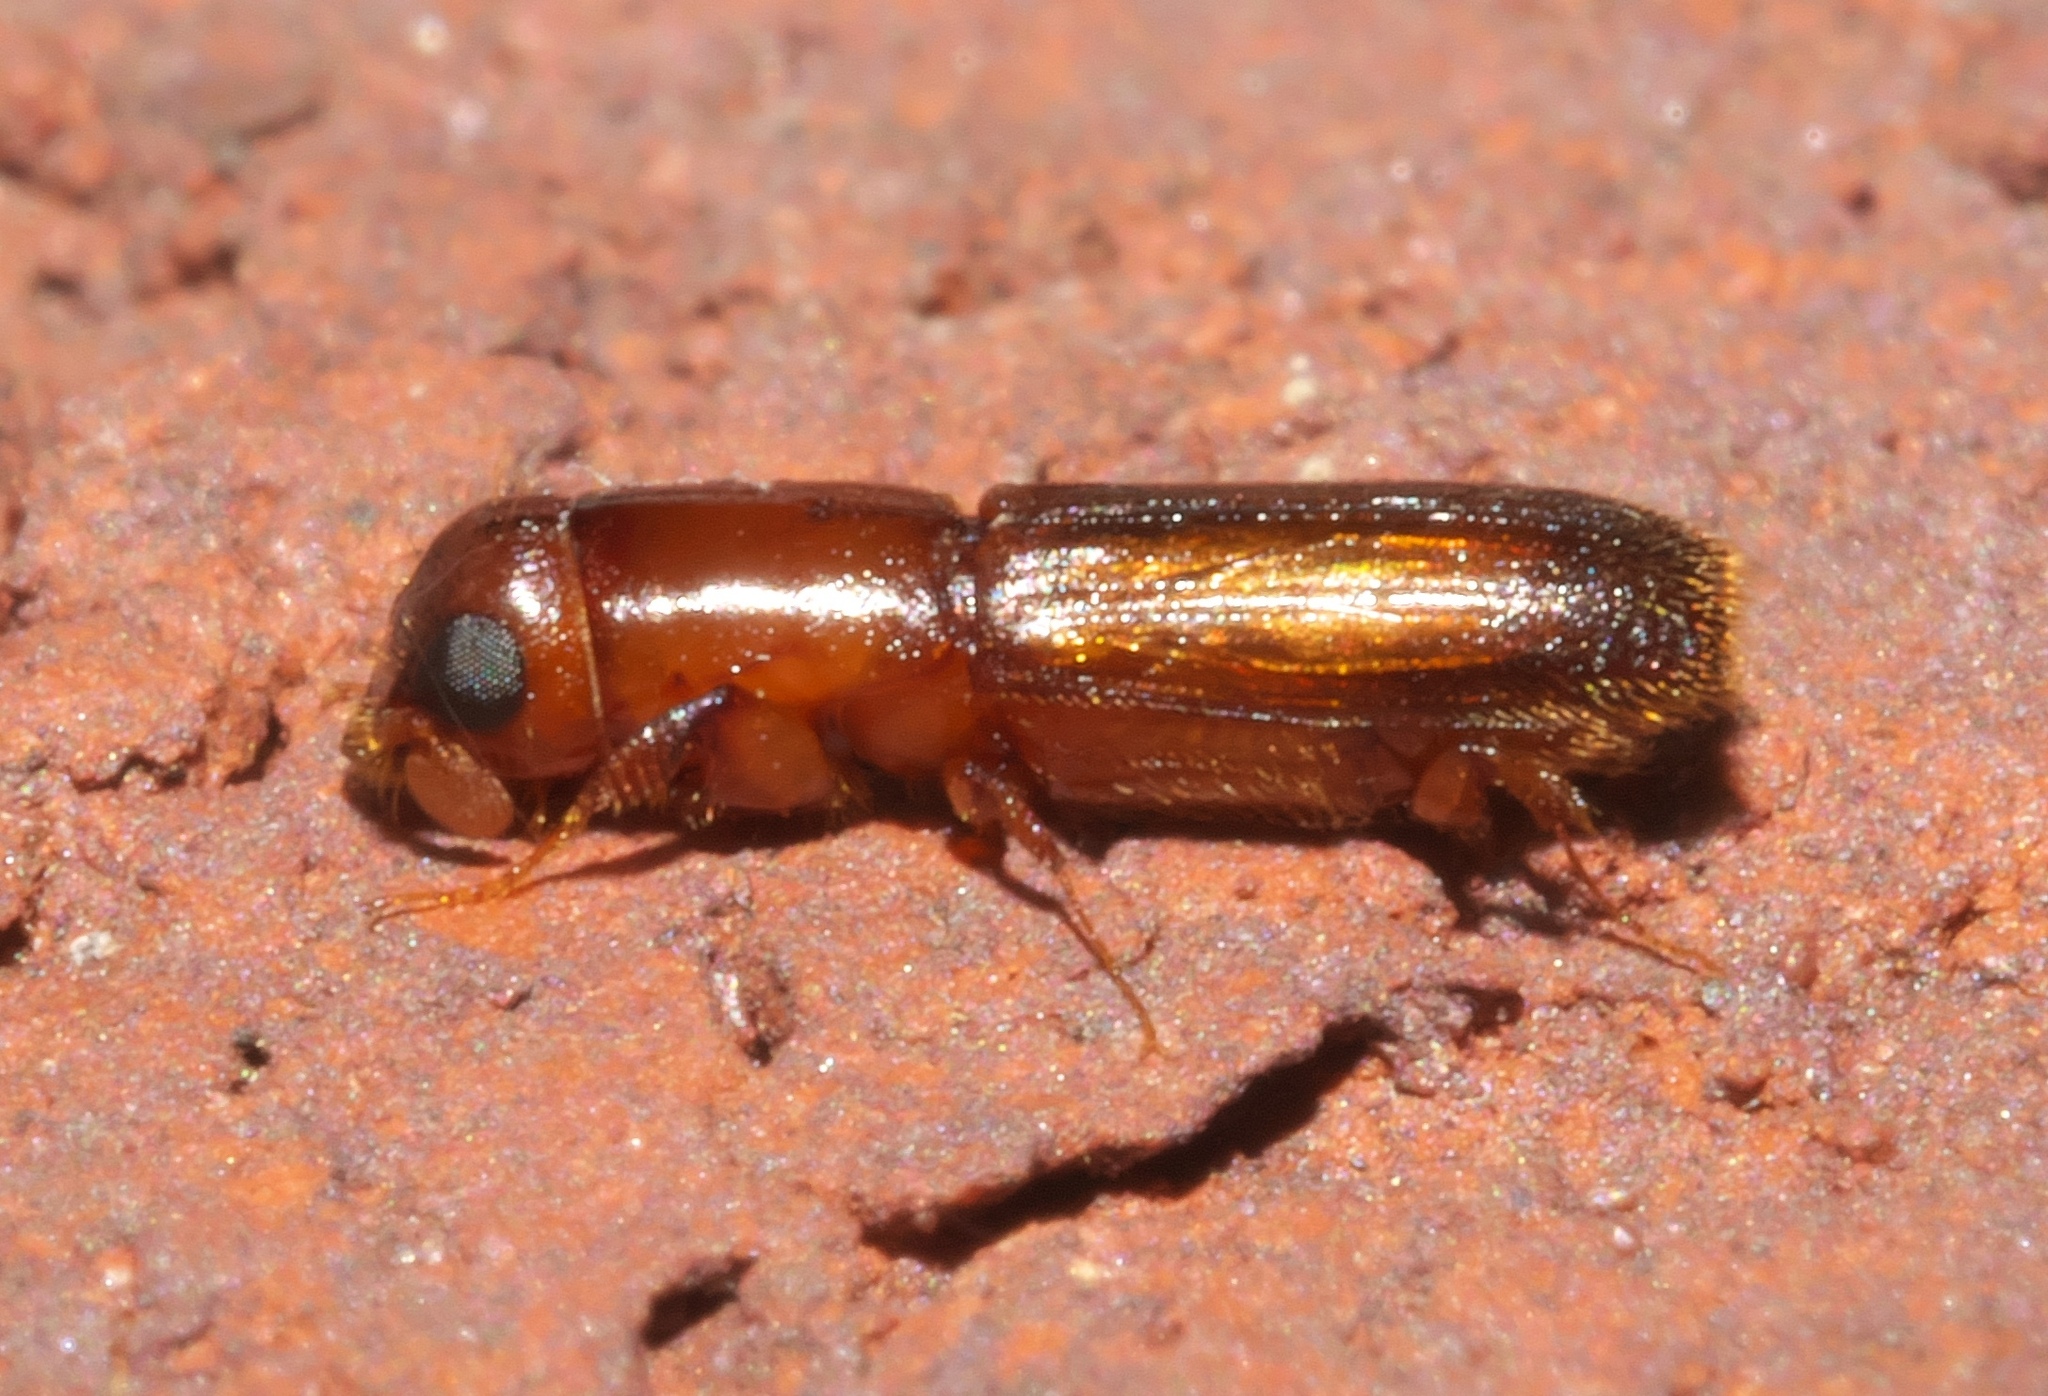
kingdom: Animalia
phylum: Arthropoda
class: Insecta
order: Coleoptera
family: Curculionidae
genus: Euplatypus
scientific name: Euplatypus compositus
